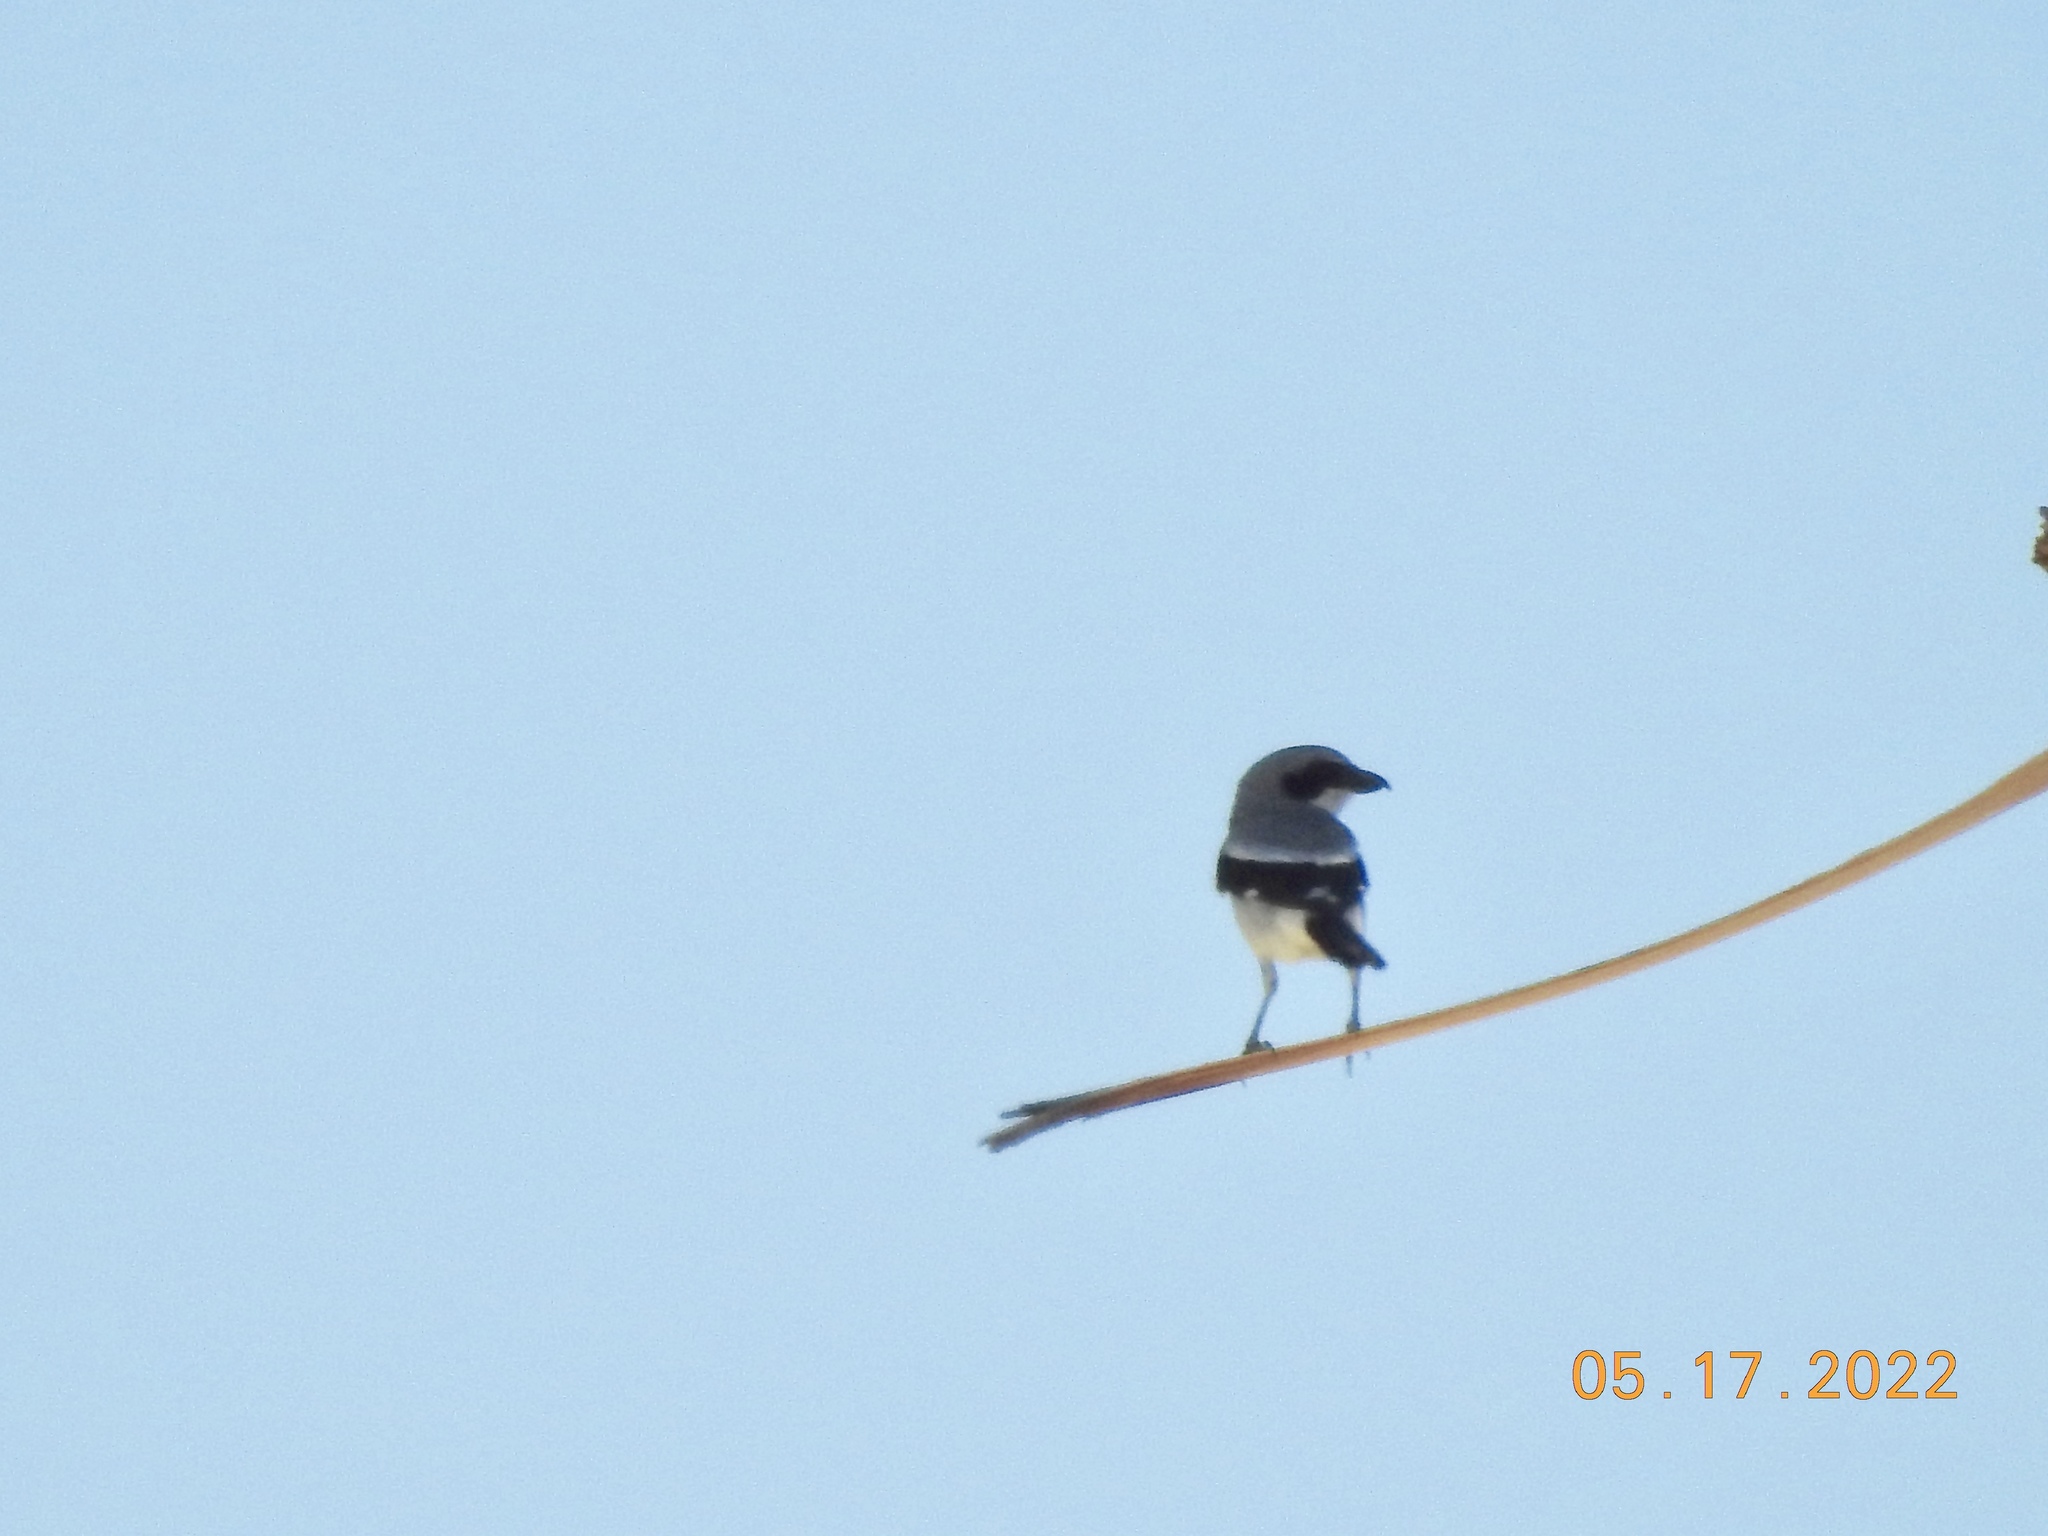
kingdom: Animalia
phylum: Chordata
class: Aves
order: Passeriformes
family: Laniidae
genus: Lanius
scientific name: Lanius ludovicianus
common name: Loggerhead shrike
